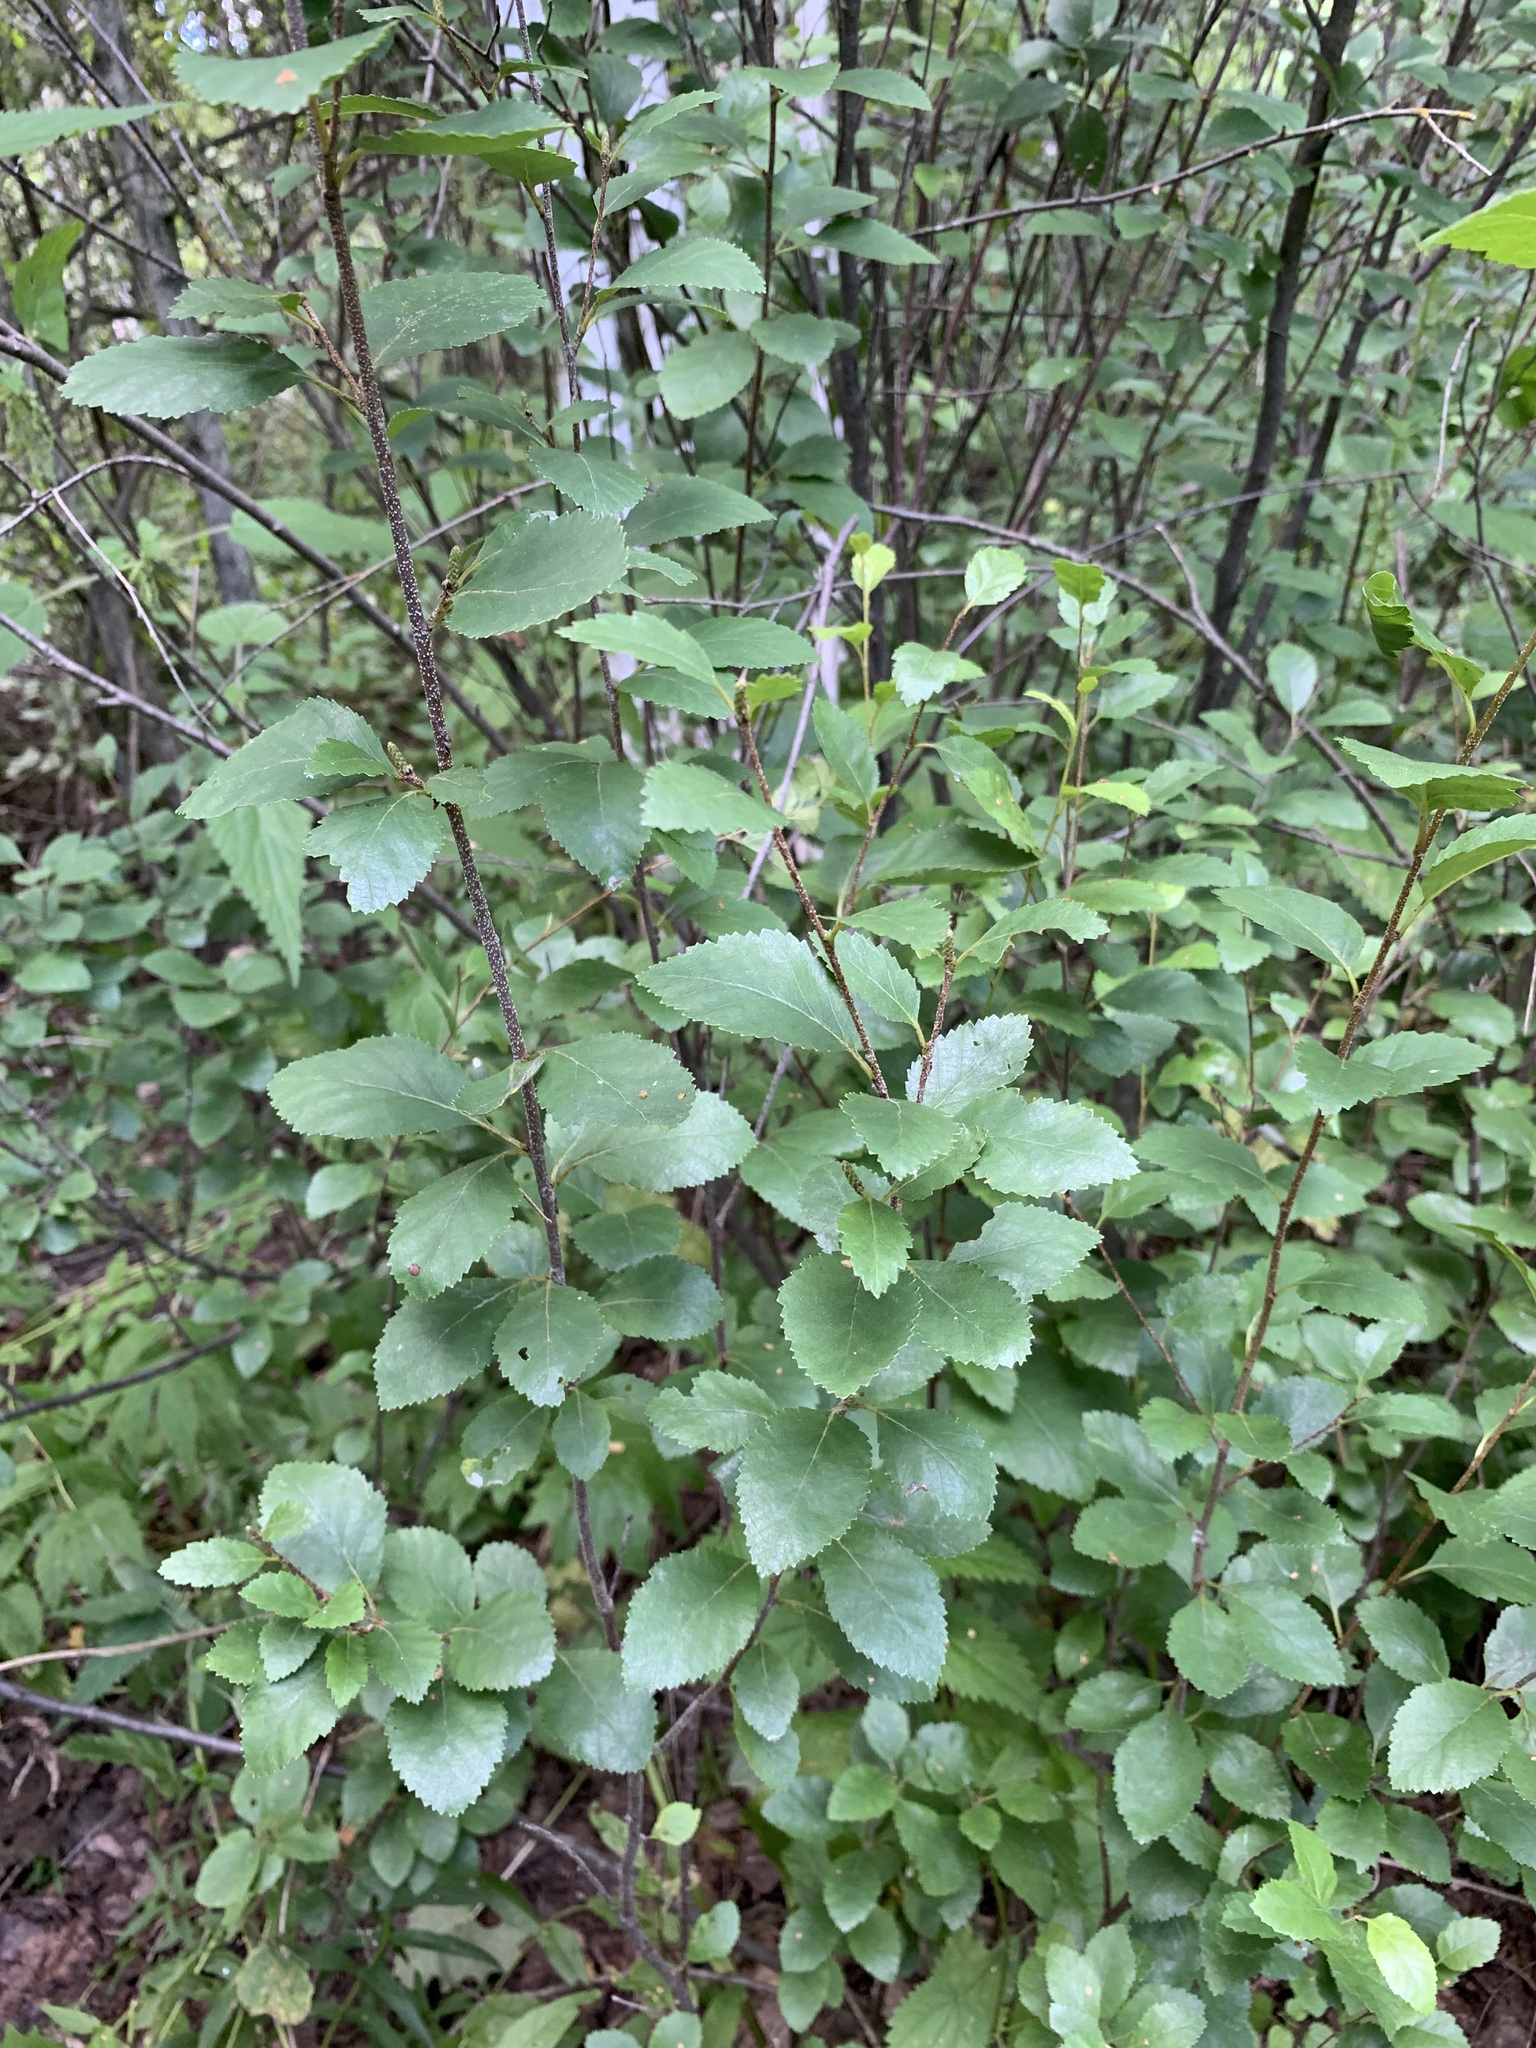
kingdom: Plantae
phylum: Tracheophyta
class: Magnoliopsida
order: Fagales
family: Betulaceae
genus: Betula
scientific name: Betula humilis
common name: Shrubby birch
